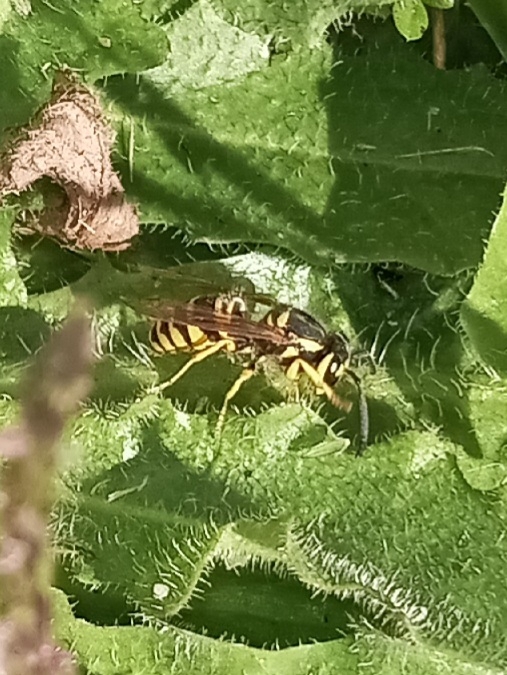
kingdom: Animalia
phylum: Arthropoda
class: Insecta
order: Hymenoptera
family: Vespidae
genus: Vespula
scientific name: Vespula maculifrons
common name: Eastern yellowjacket
